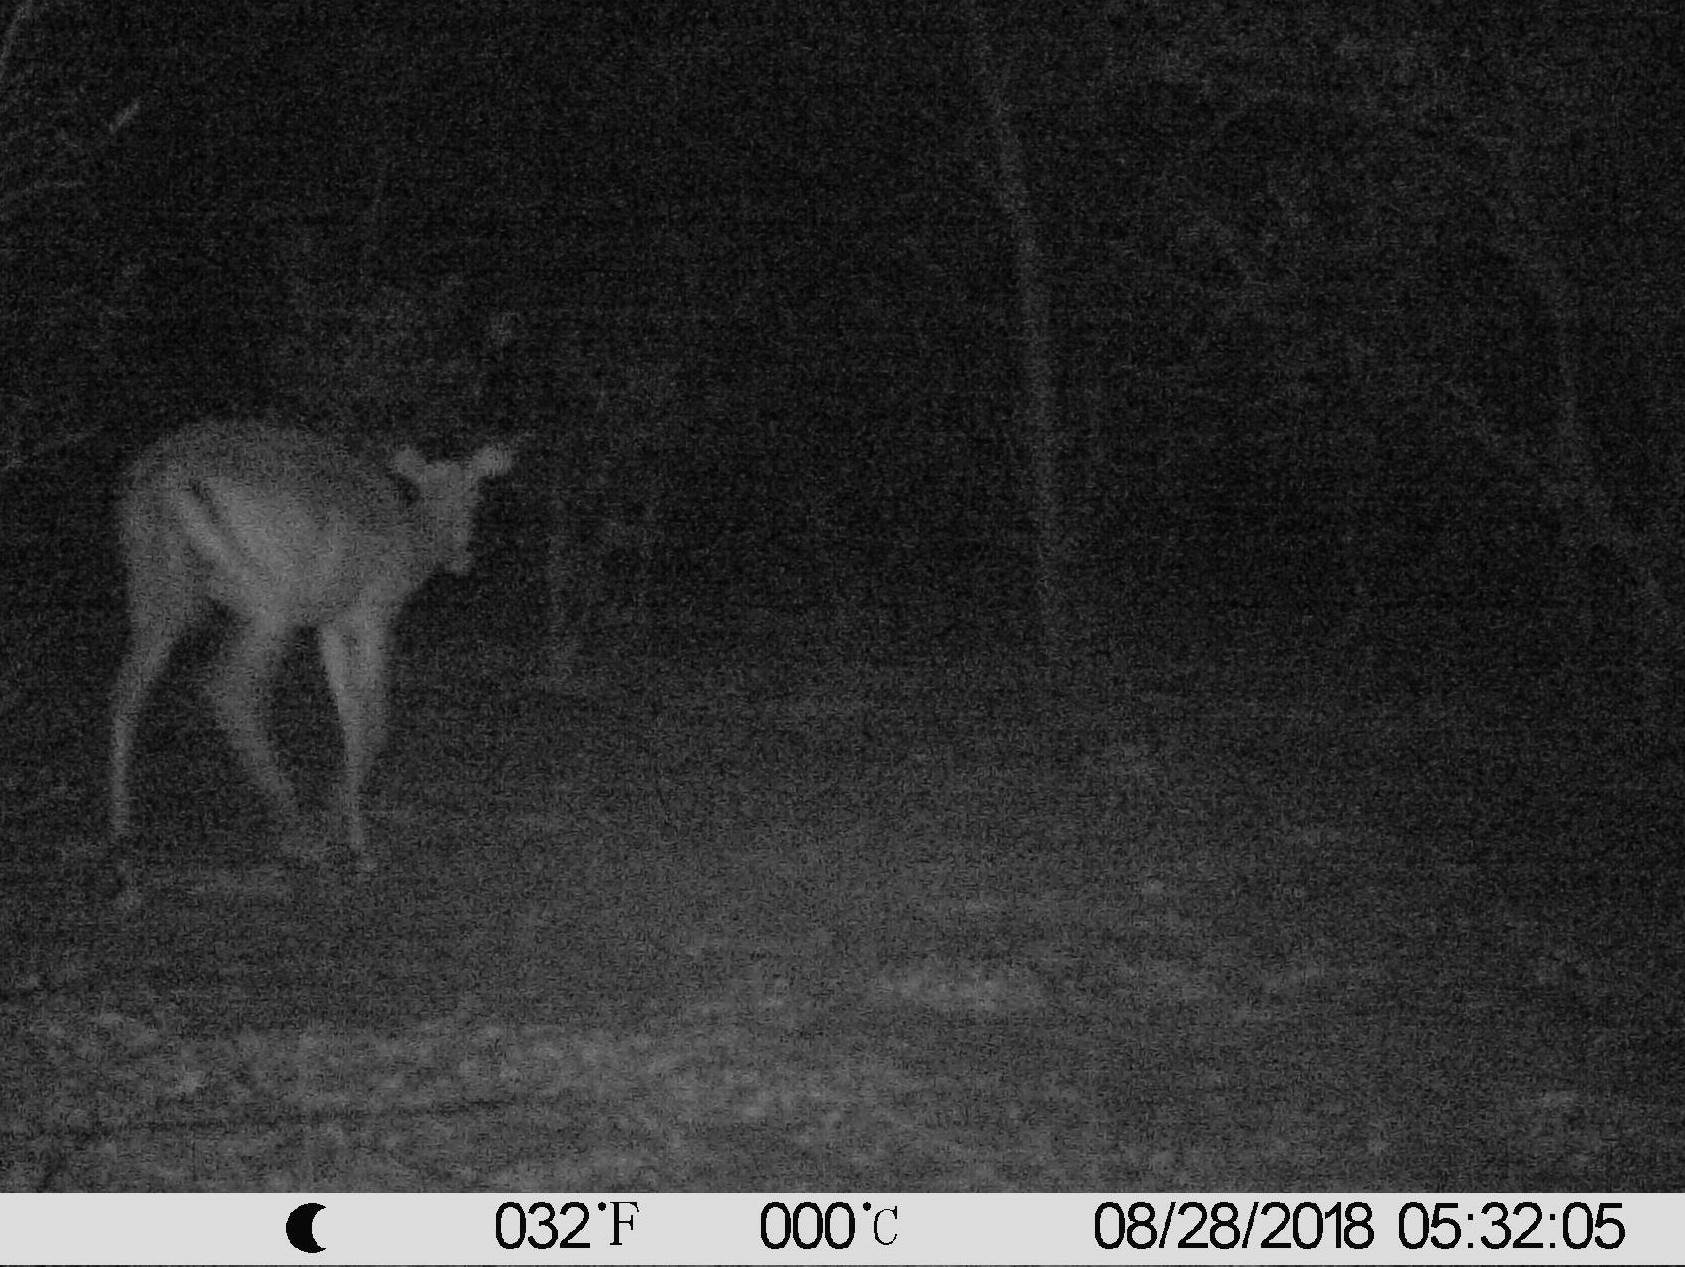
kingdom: Animalia
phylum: Chordata
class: Mammalia
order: Artiodactyla
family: Bovidae
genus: Aepyceros
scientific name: Aepyceros melampus
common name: Impala
